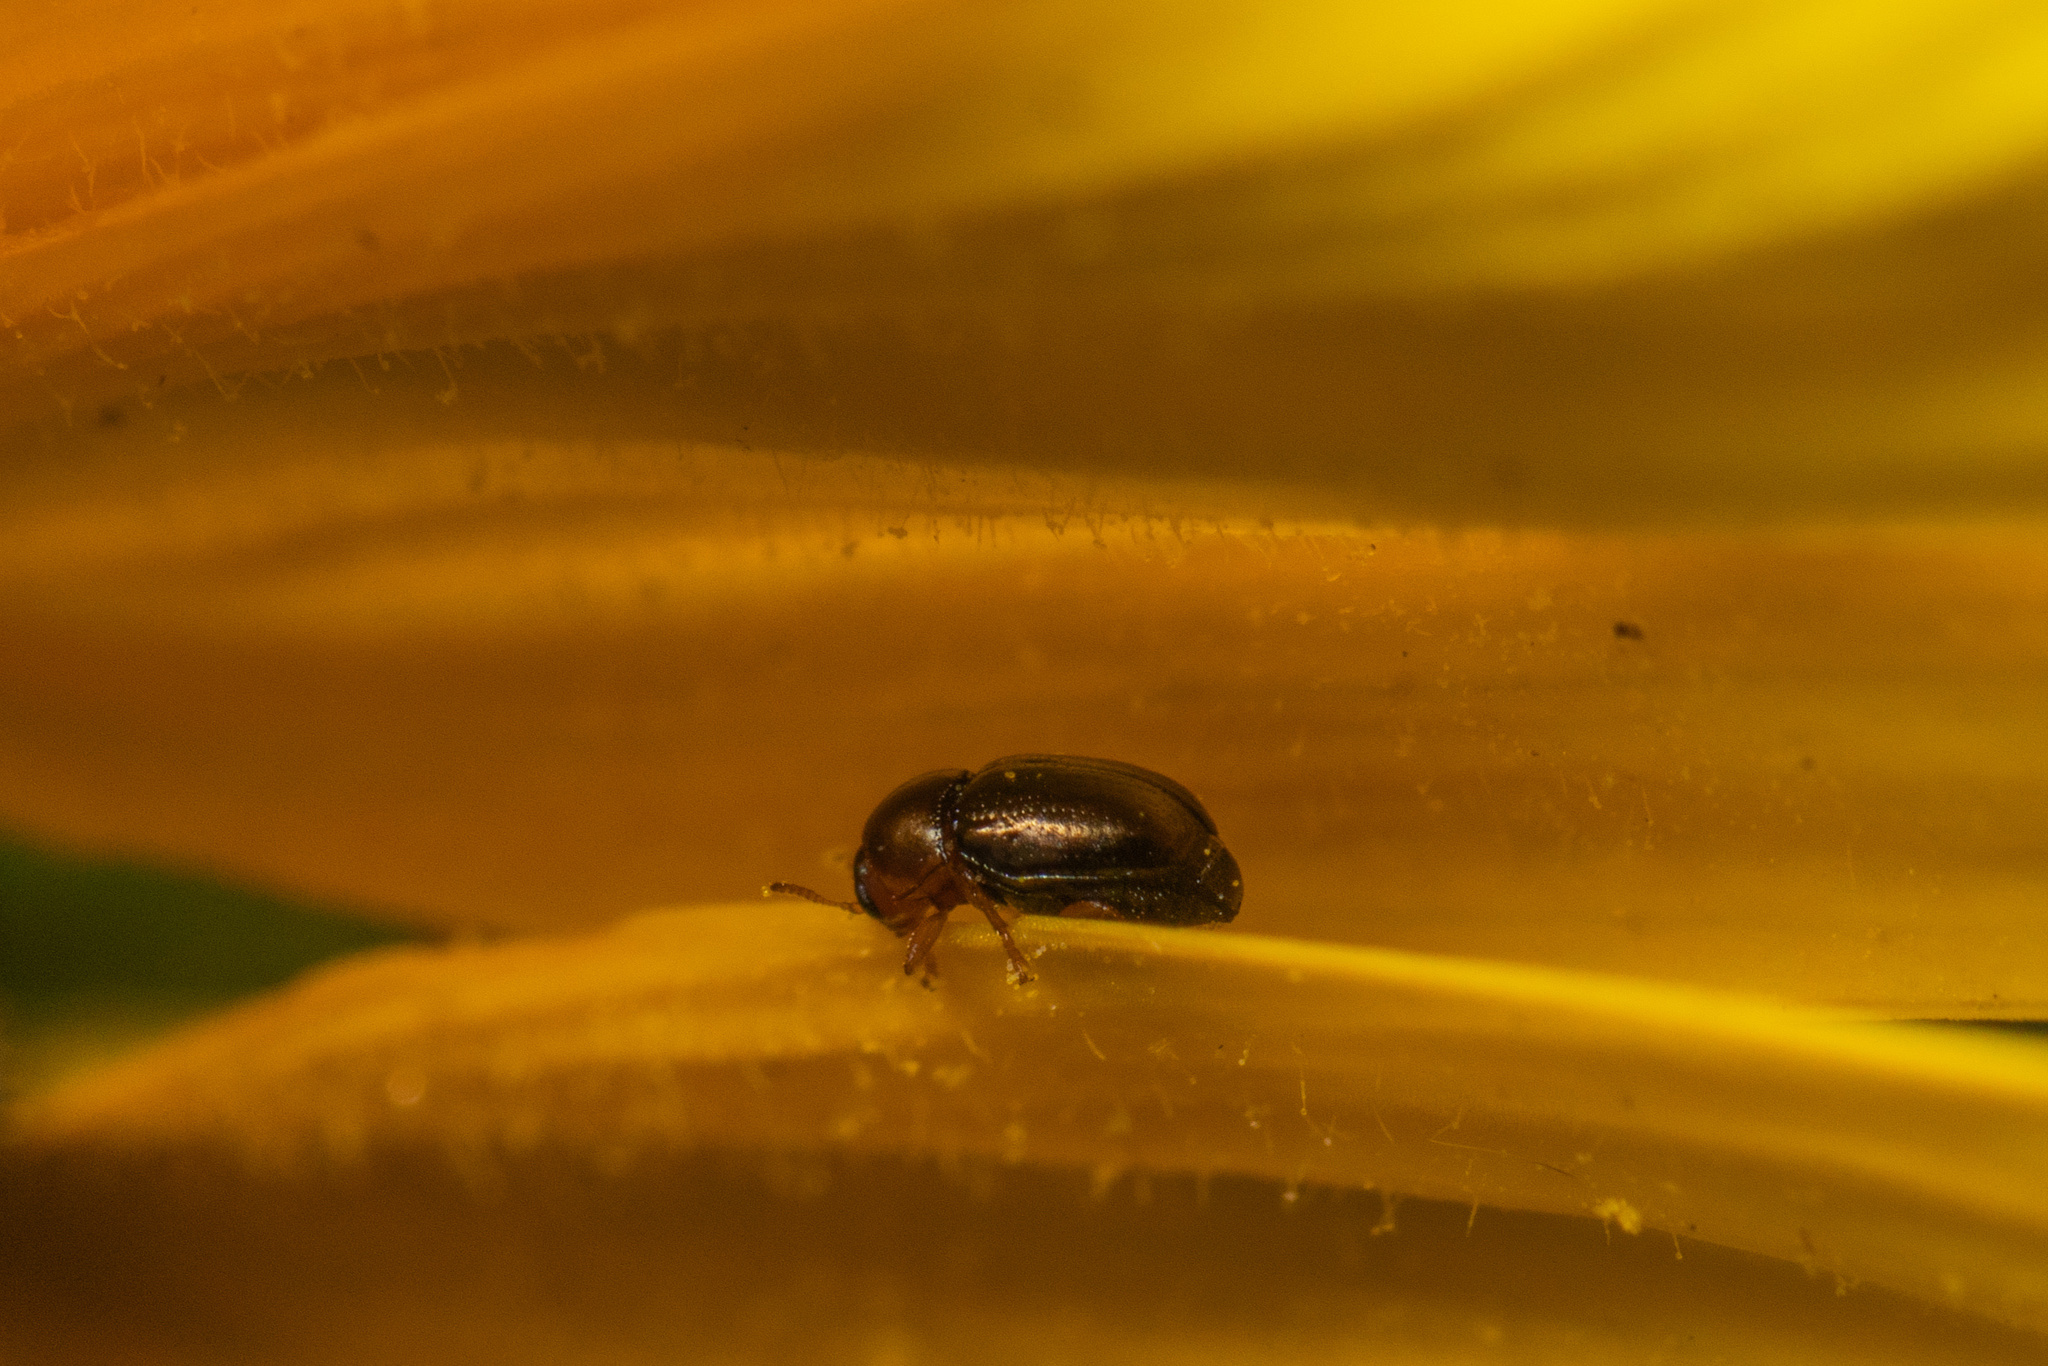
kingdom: Animalia
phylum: Arthropoda
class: Insecta
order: Coleoptera
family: Chrysomelidae
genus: Diachus
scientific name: Diachus auratus
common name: Bronze leaf beetle
